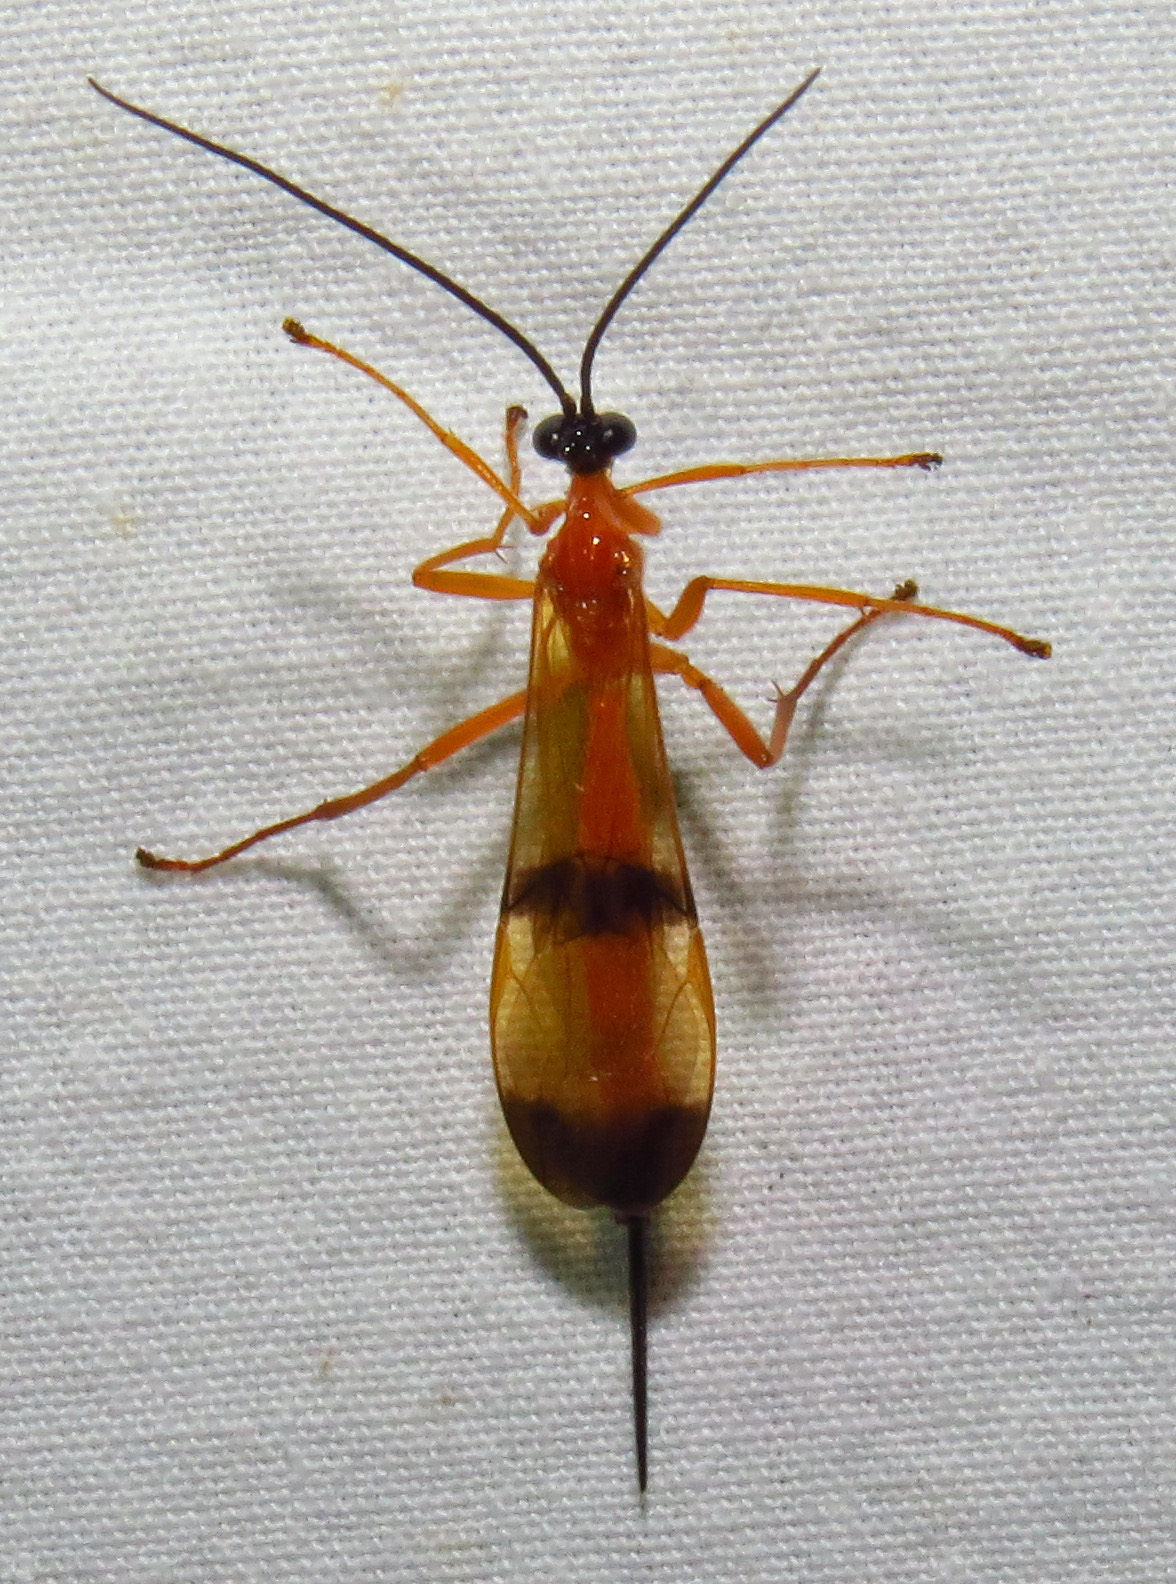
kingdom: Animalia
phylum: Arthropoda
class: Insecta
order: Hymenoptera
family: Ichneumonidae
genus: Acrotaphus
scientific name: Acrotaphus wiltii
